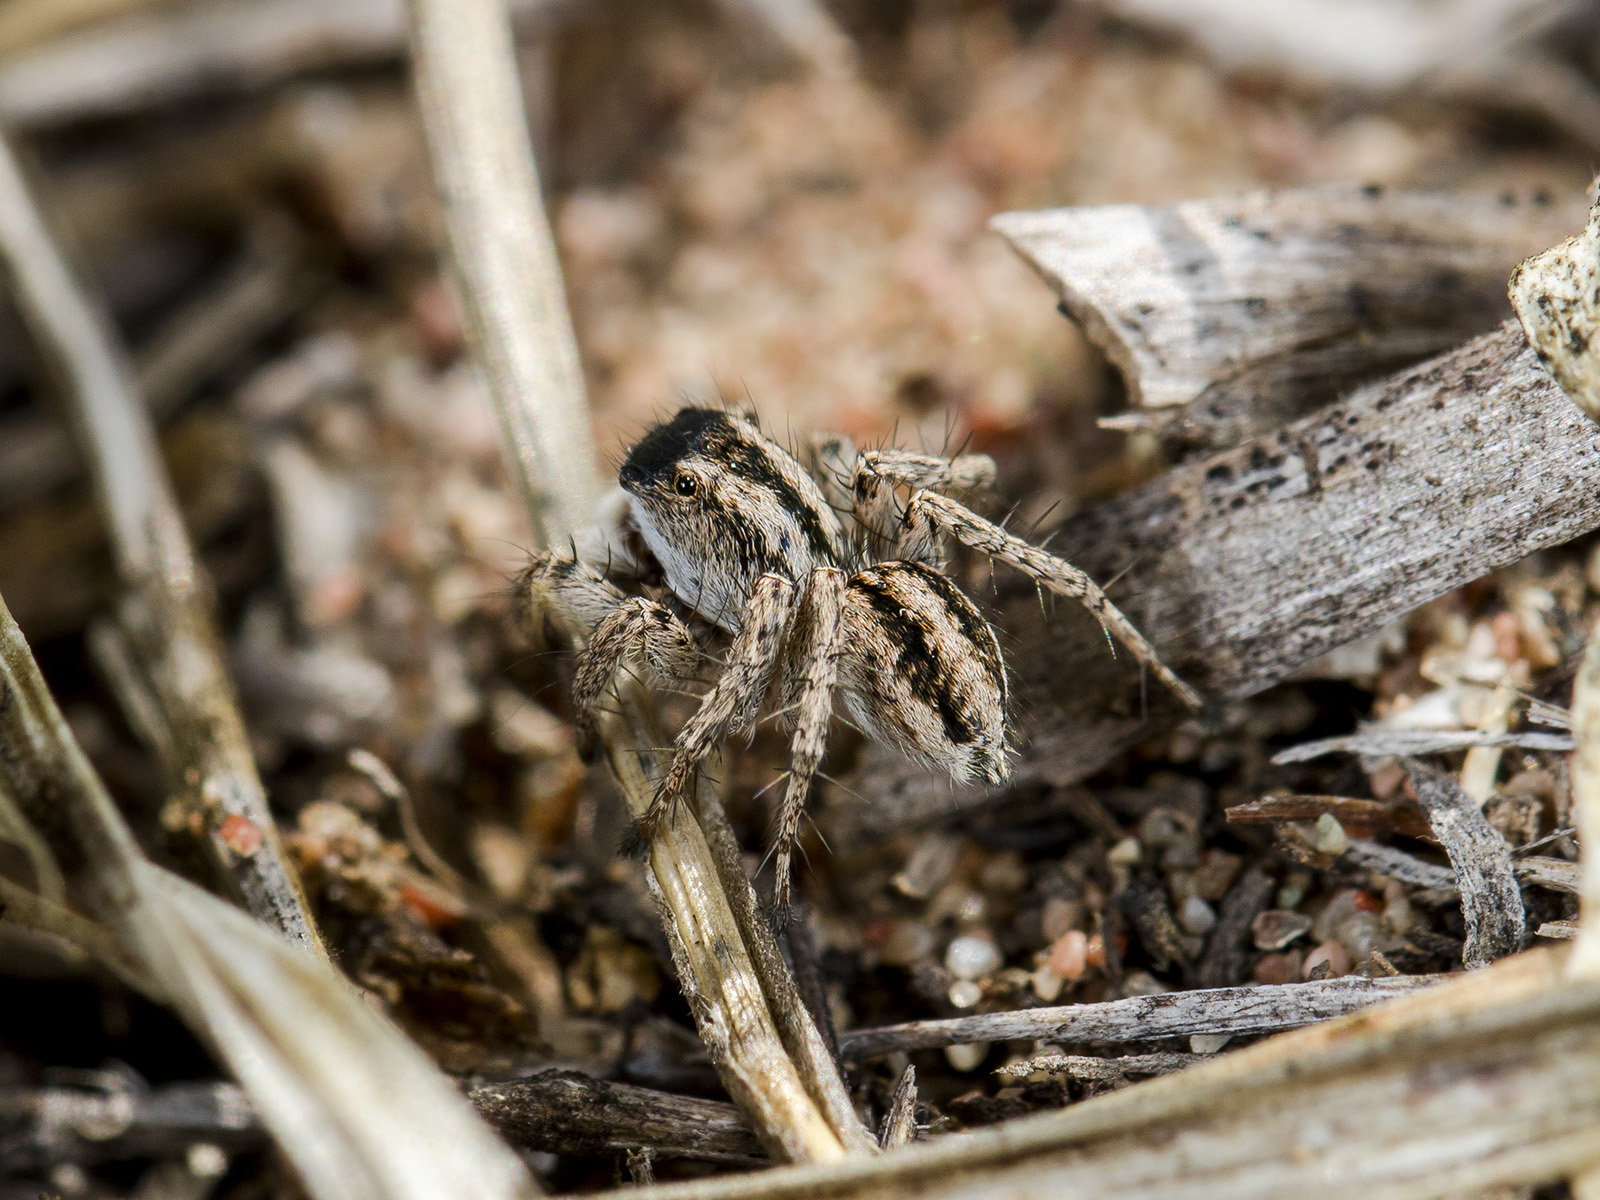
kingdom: Animalia
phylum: Arthropoda
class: Arachnida
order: Araneae
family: Salticidae
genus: Aelurillus
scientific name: Aelurillus m-nigrum
